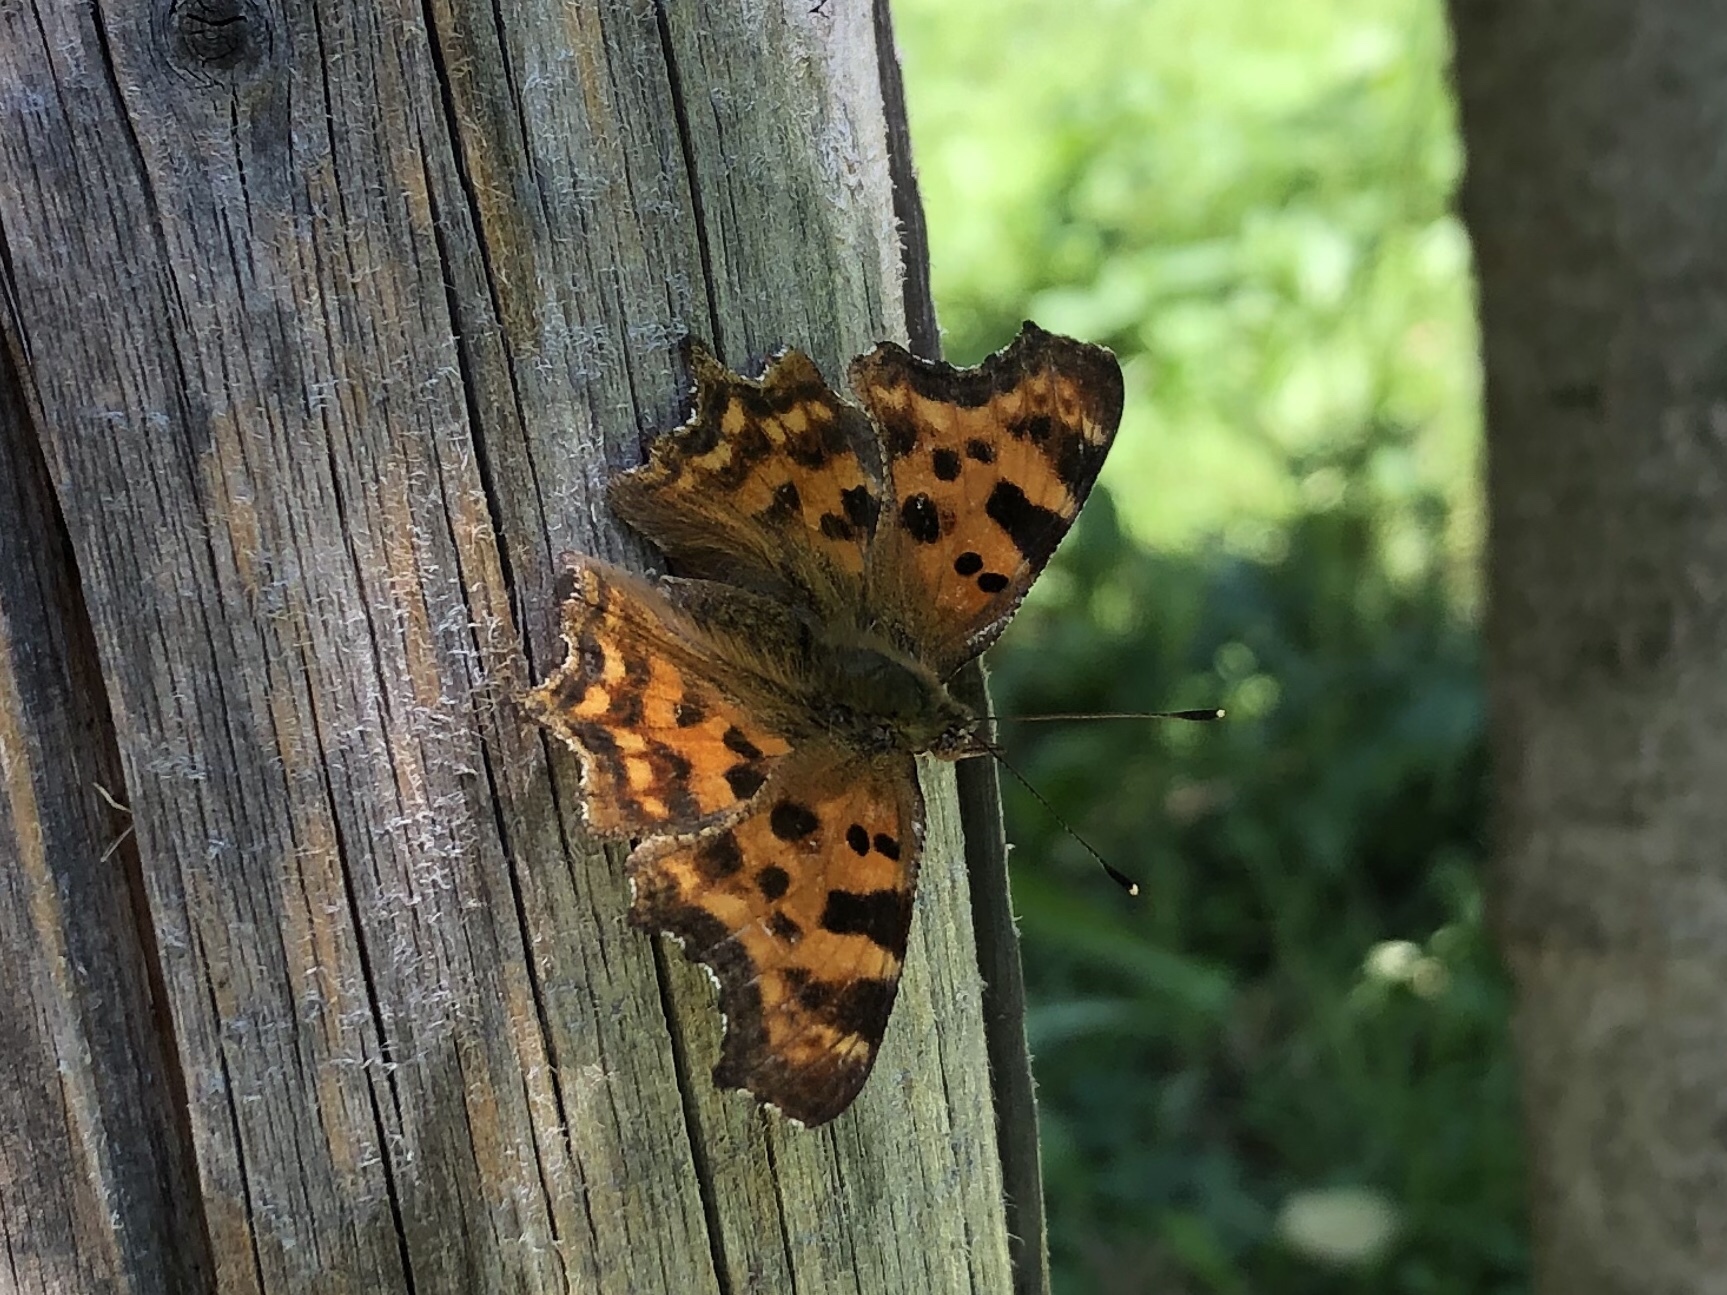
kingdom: Animalia
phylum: Arthropoda
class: Insecta
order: Lepidoptera
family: Nymphalidae
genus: Polygonia
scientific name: Polygonia c-album
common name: Comma
